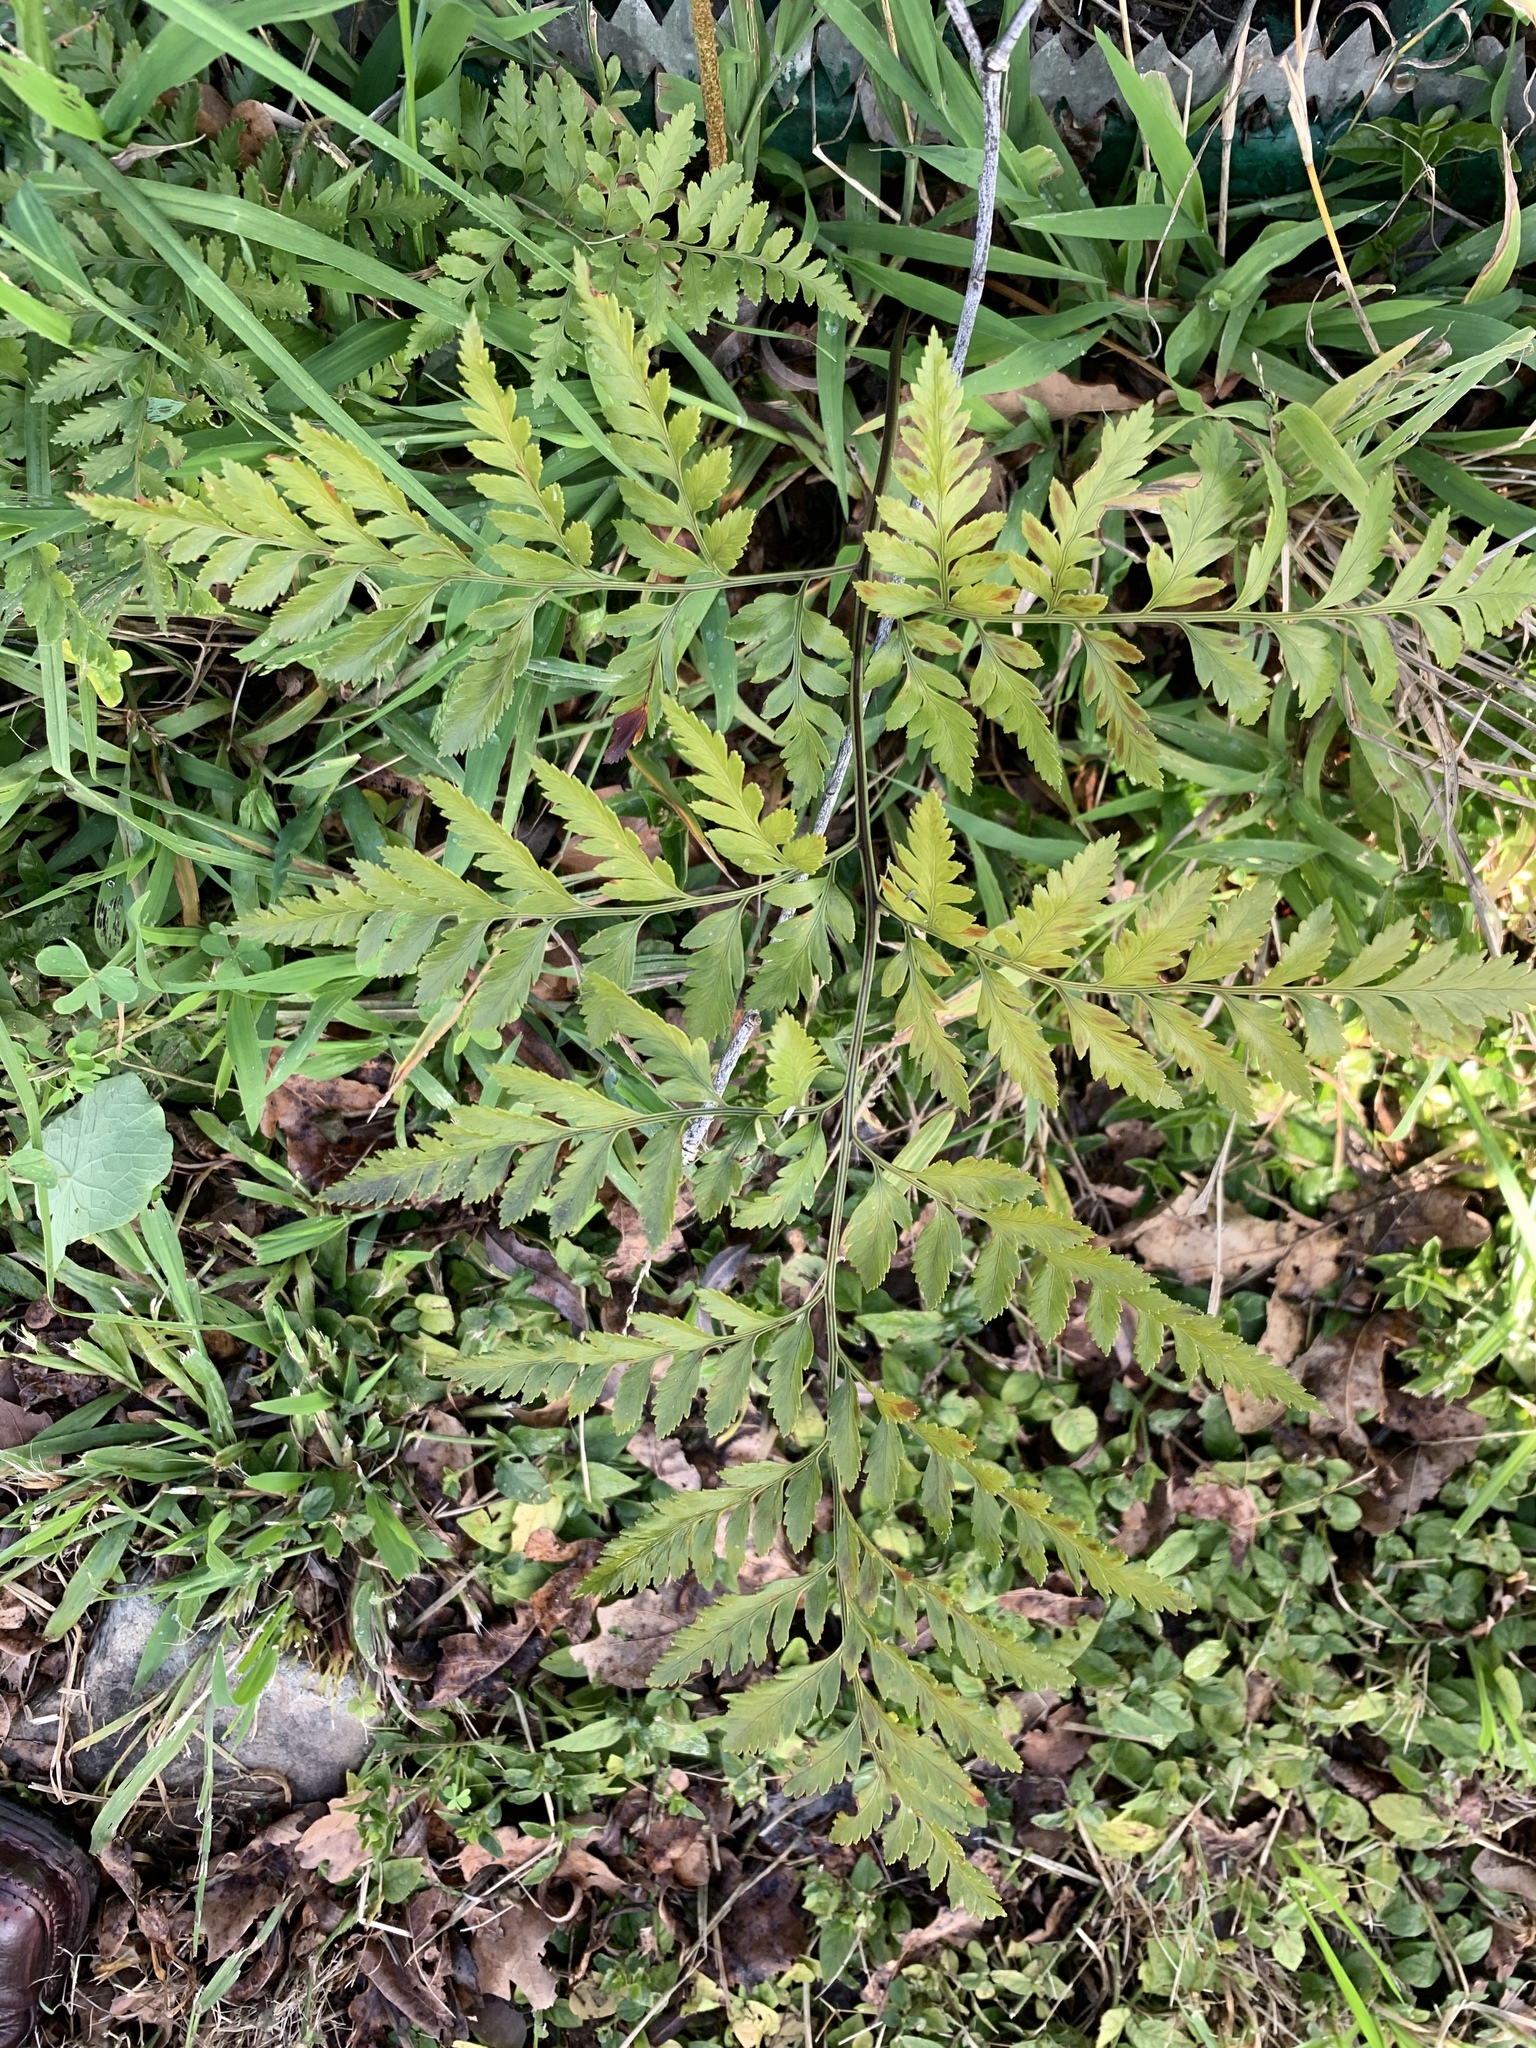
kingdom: Plantae
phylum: Tracheophyta
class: Polypodiopsida
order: Polypodiales
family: Dryopteridaceae
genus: Rumohra
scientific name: Rumohra adiantiformis
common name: Leather fern
